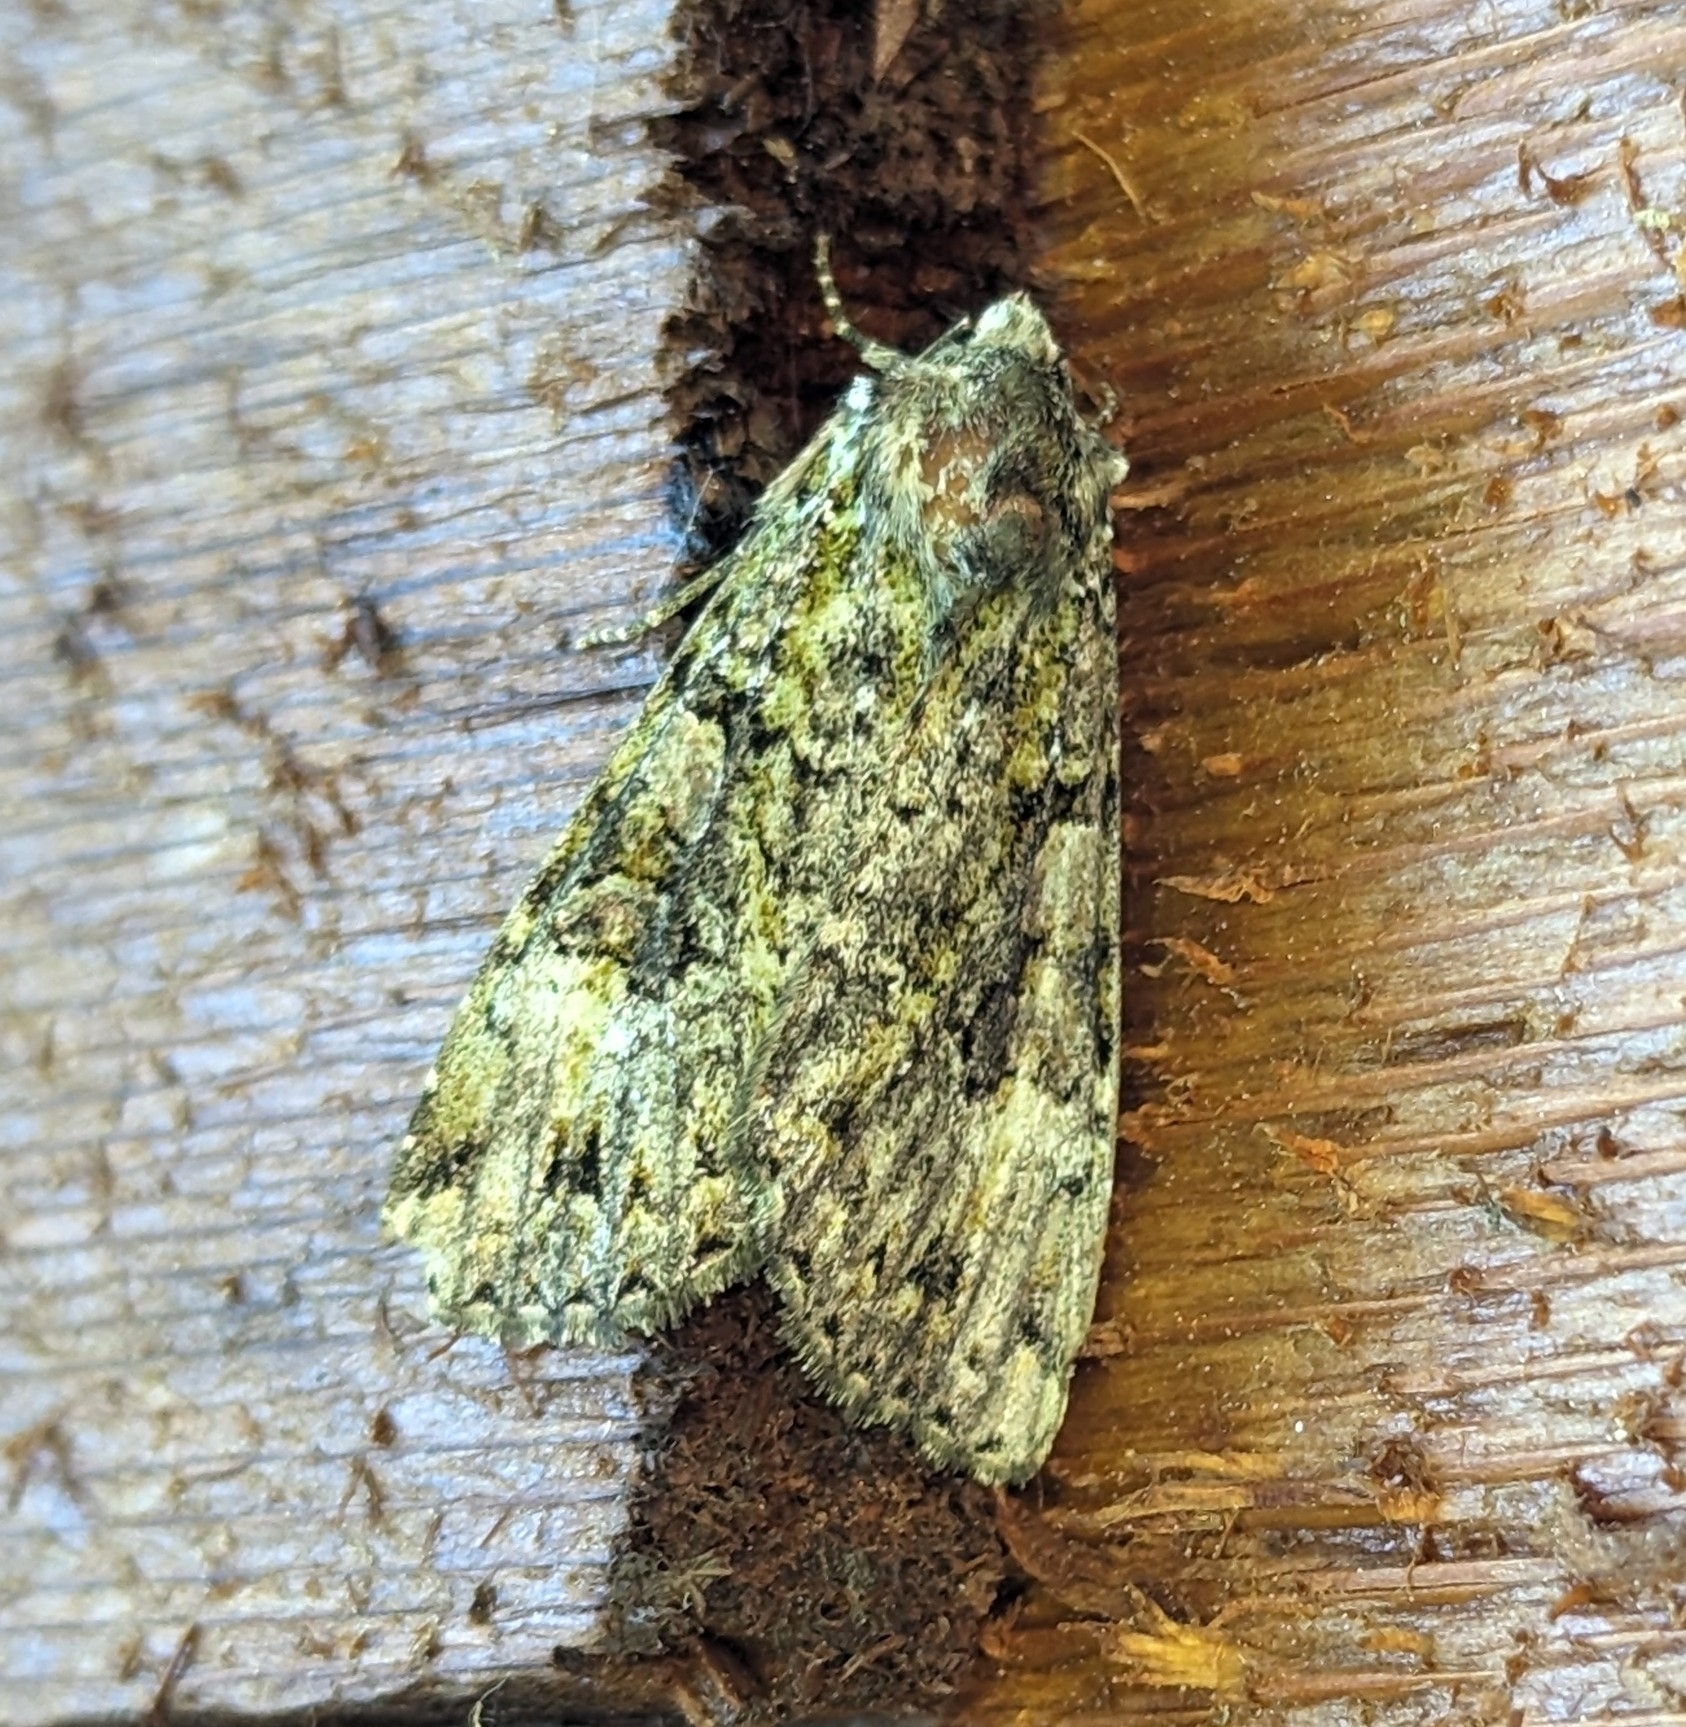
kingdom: Animalia
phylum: Arthropoda
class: Insecta
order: Lepidoptera
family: Noctuidae
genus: Anaplectoides
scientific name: Anaplectoides prasina
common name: Green arches
